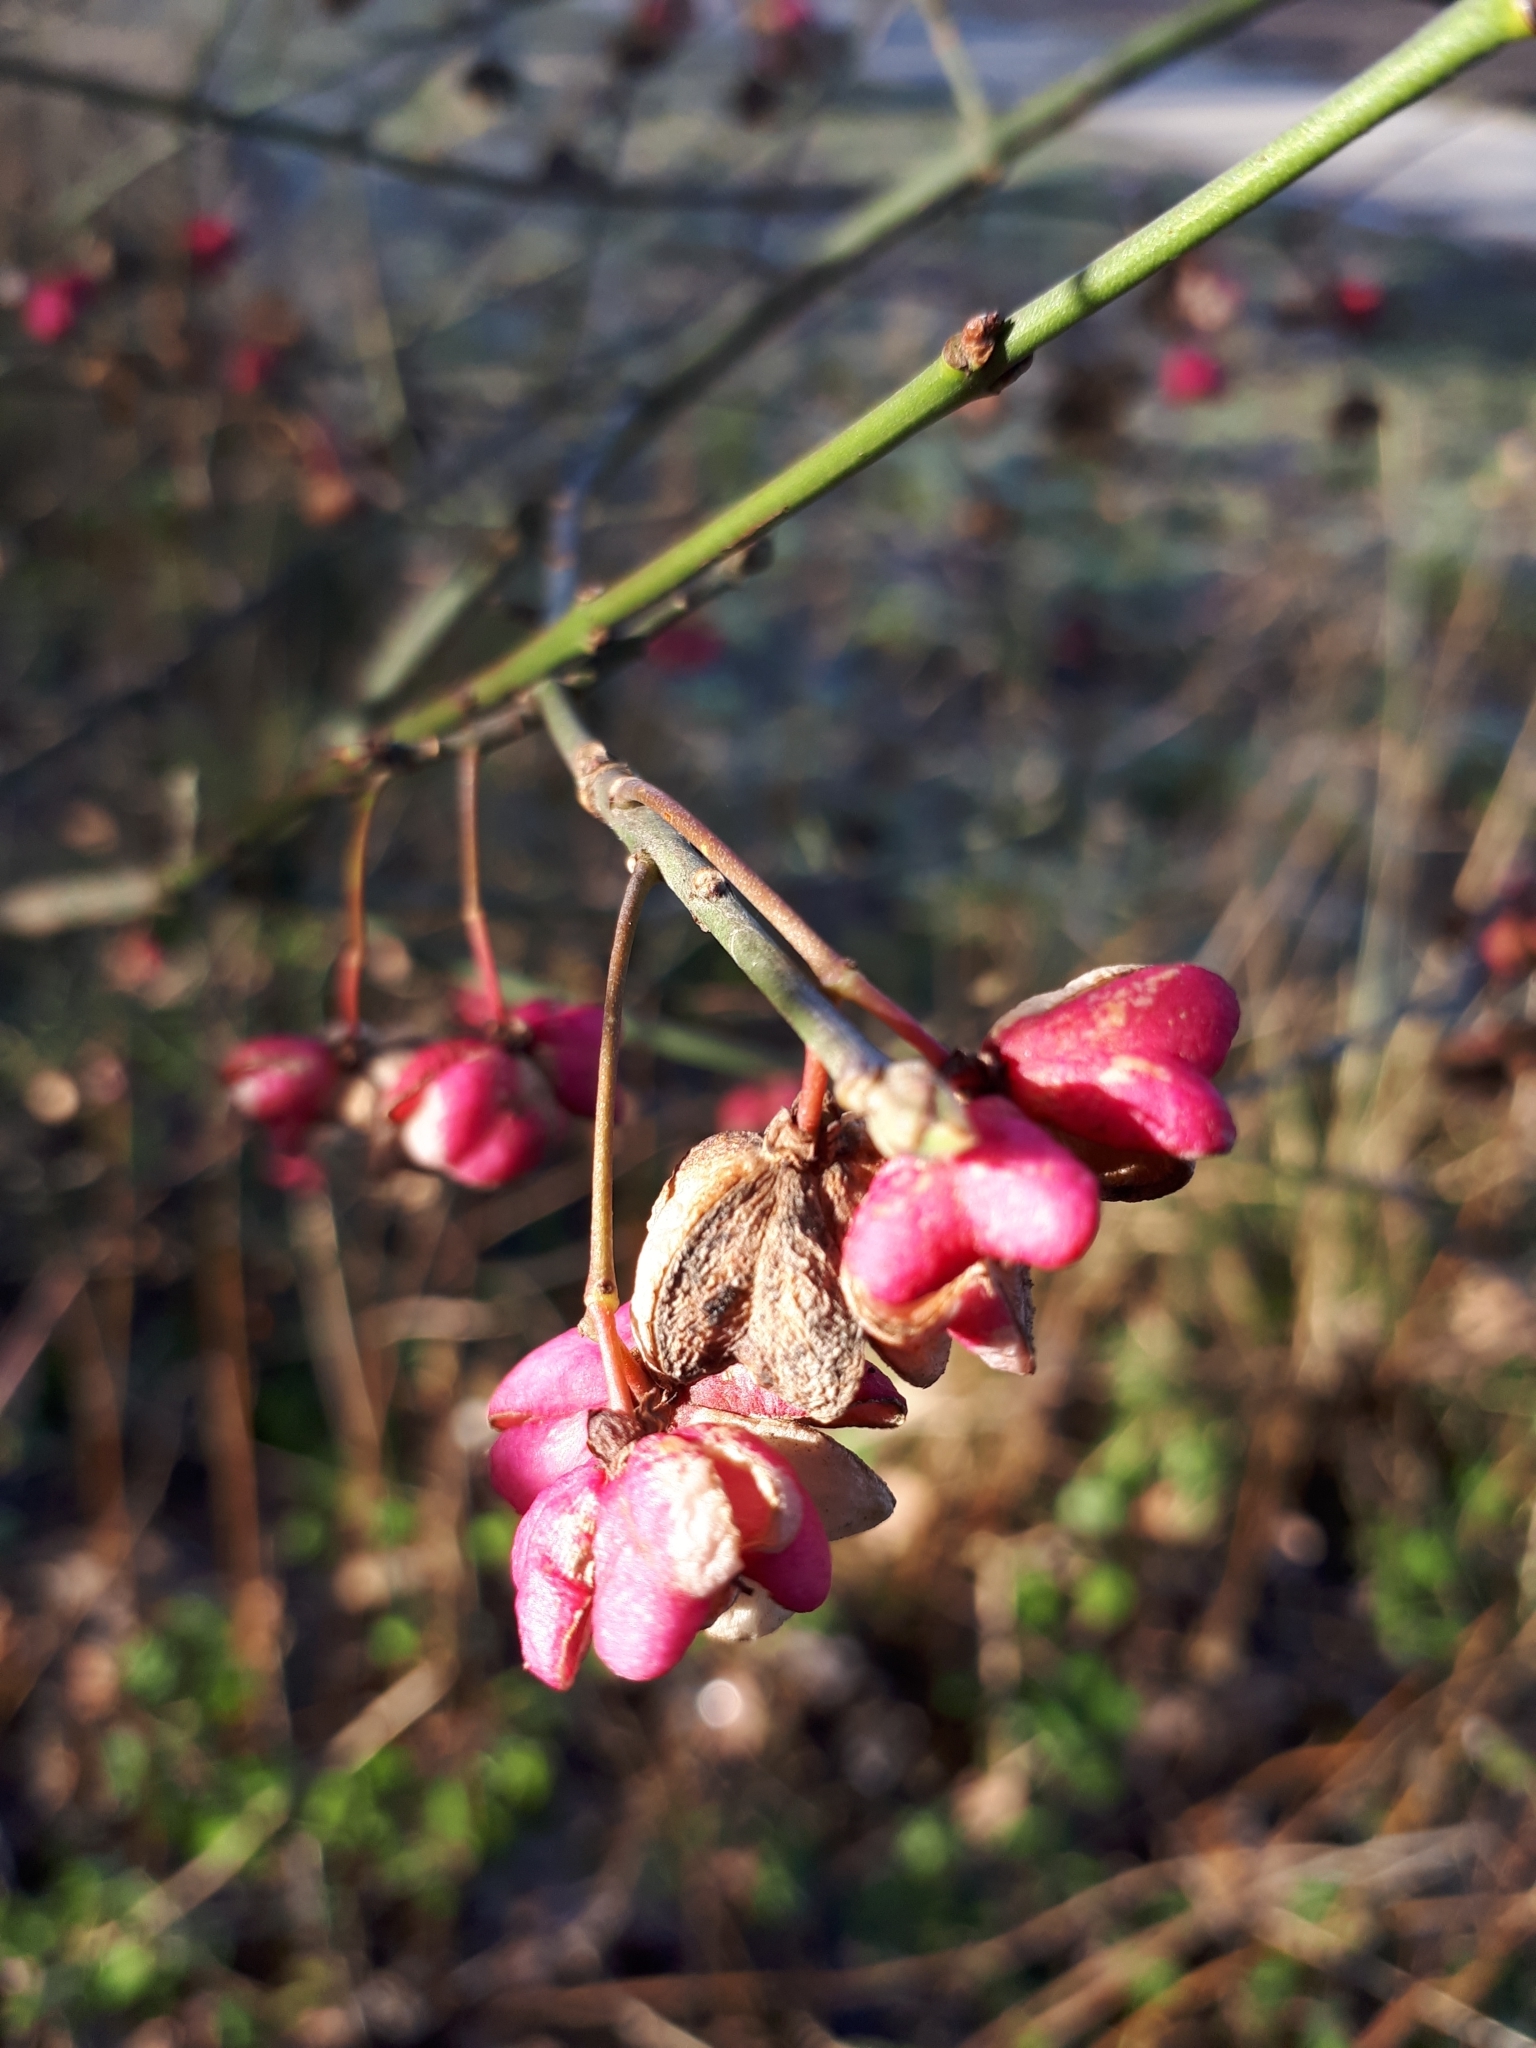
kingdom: Plantae
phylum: Tracheophyta
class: Magnoliopsida
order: Celastrales
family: Celastraceae
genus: Euonymus
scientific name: Euonymus europaeus
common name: Spindle
